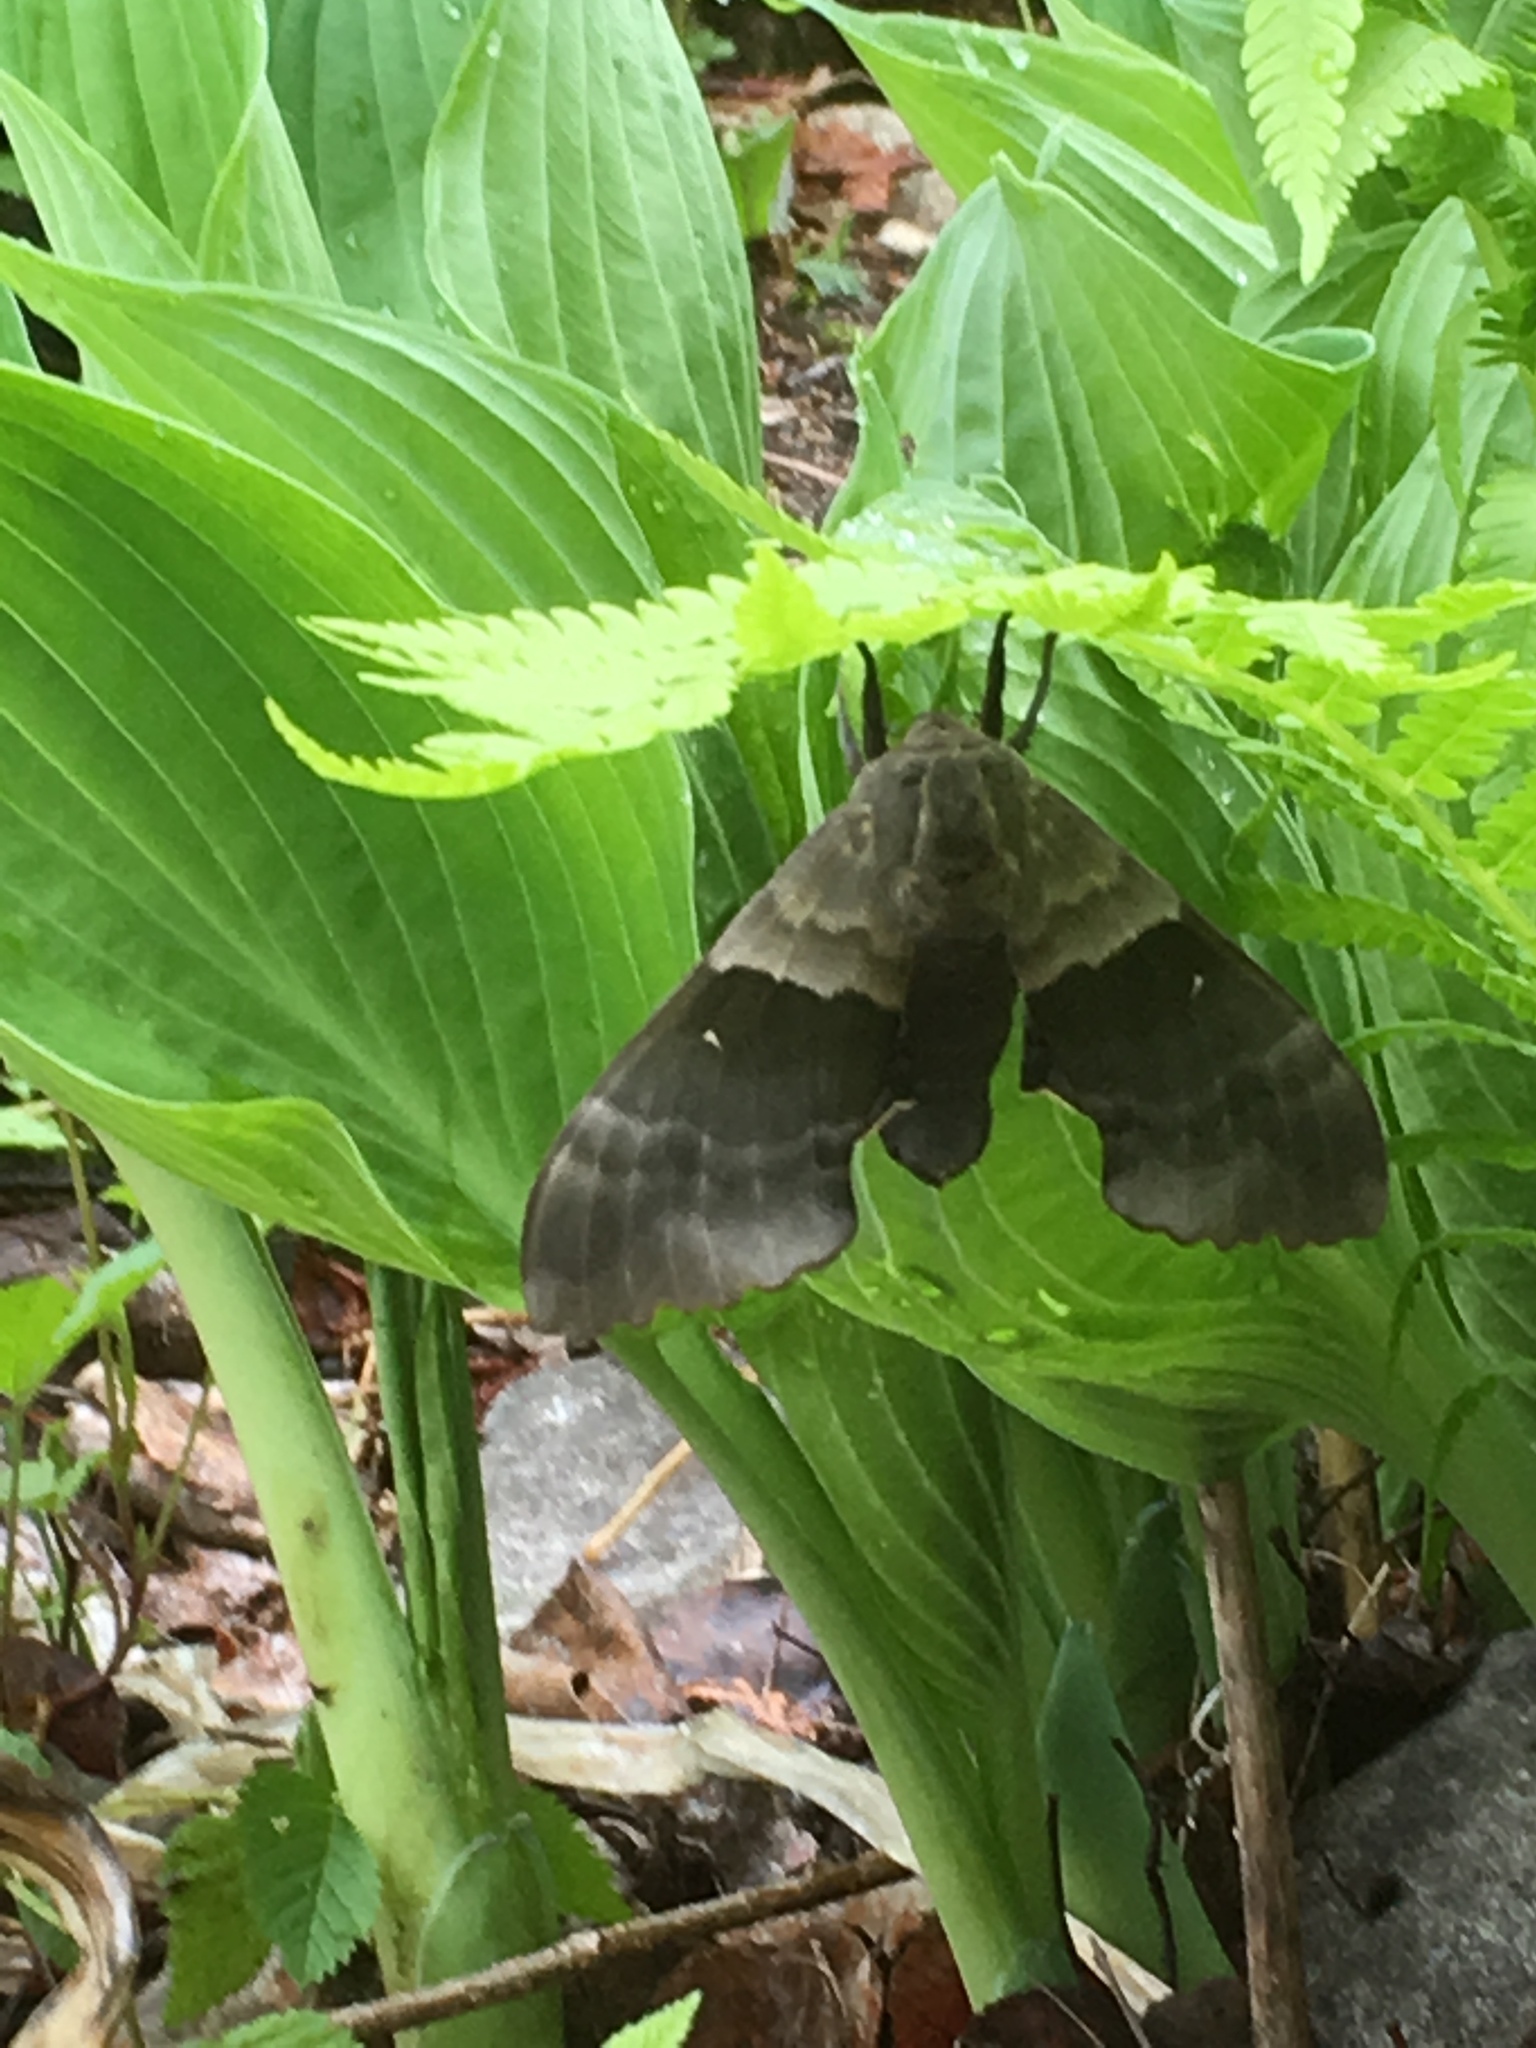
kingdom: Animalia
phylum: Arthropoda
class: Insecta
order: Lepidoptera
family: Sphingidae
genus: Pachysphinx
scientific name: Pachysphinx modesta
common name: Big poplar sphinx
